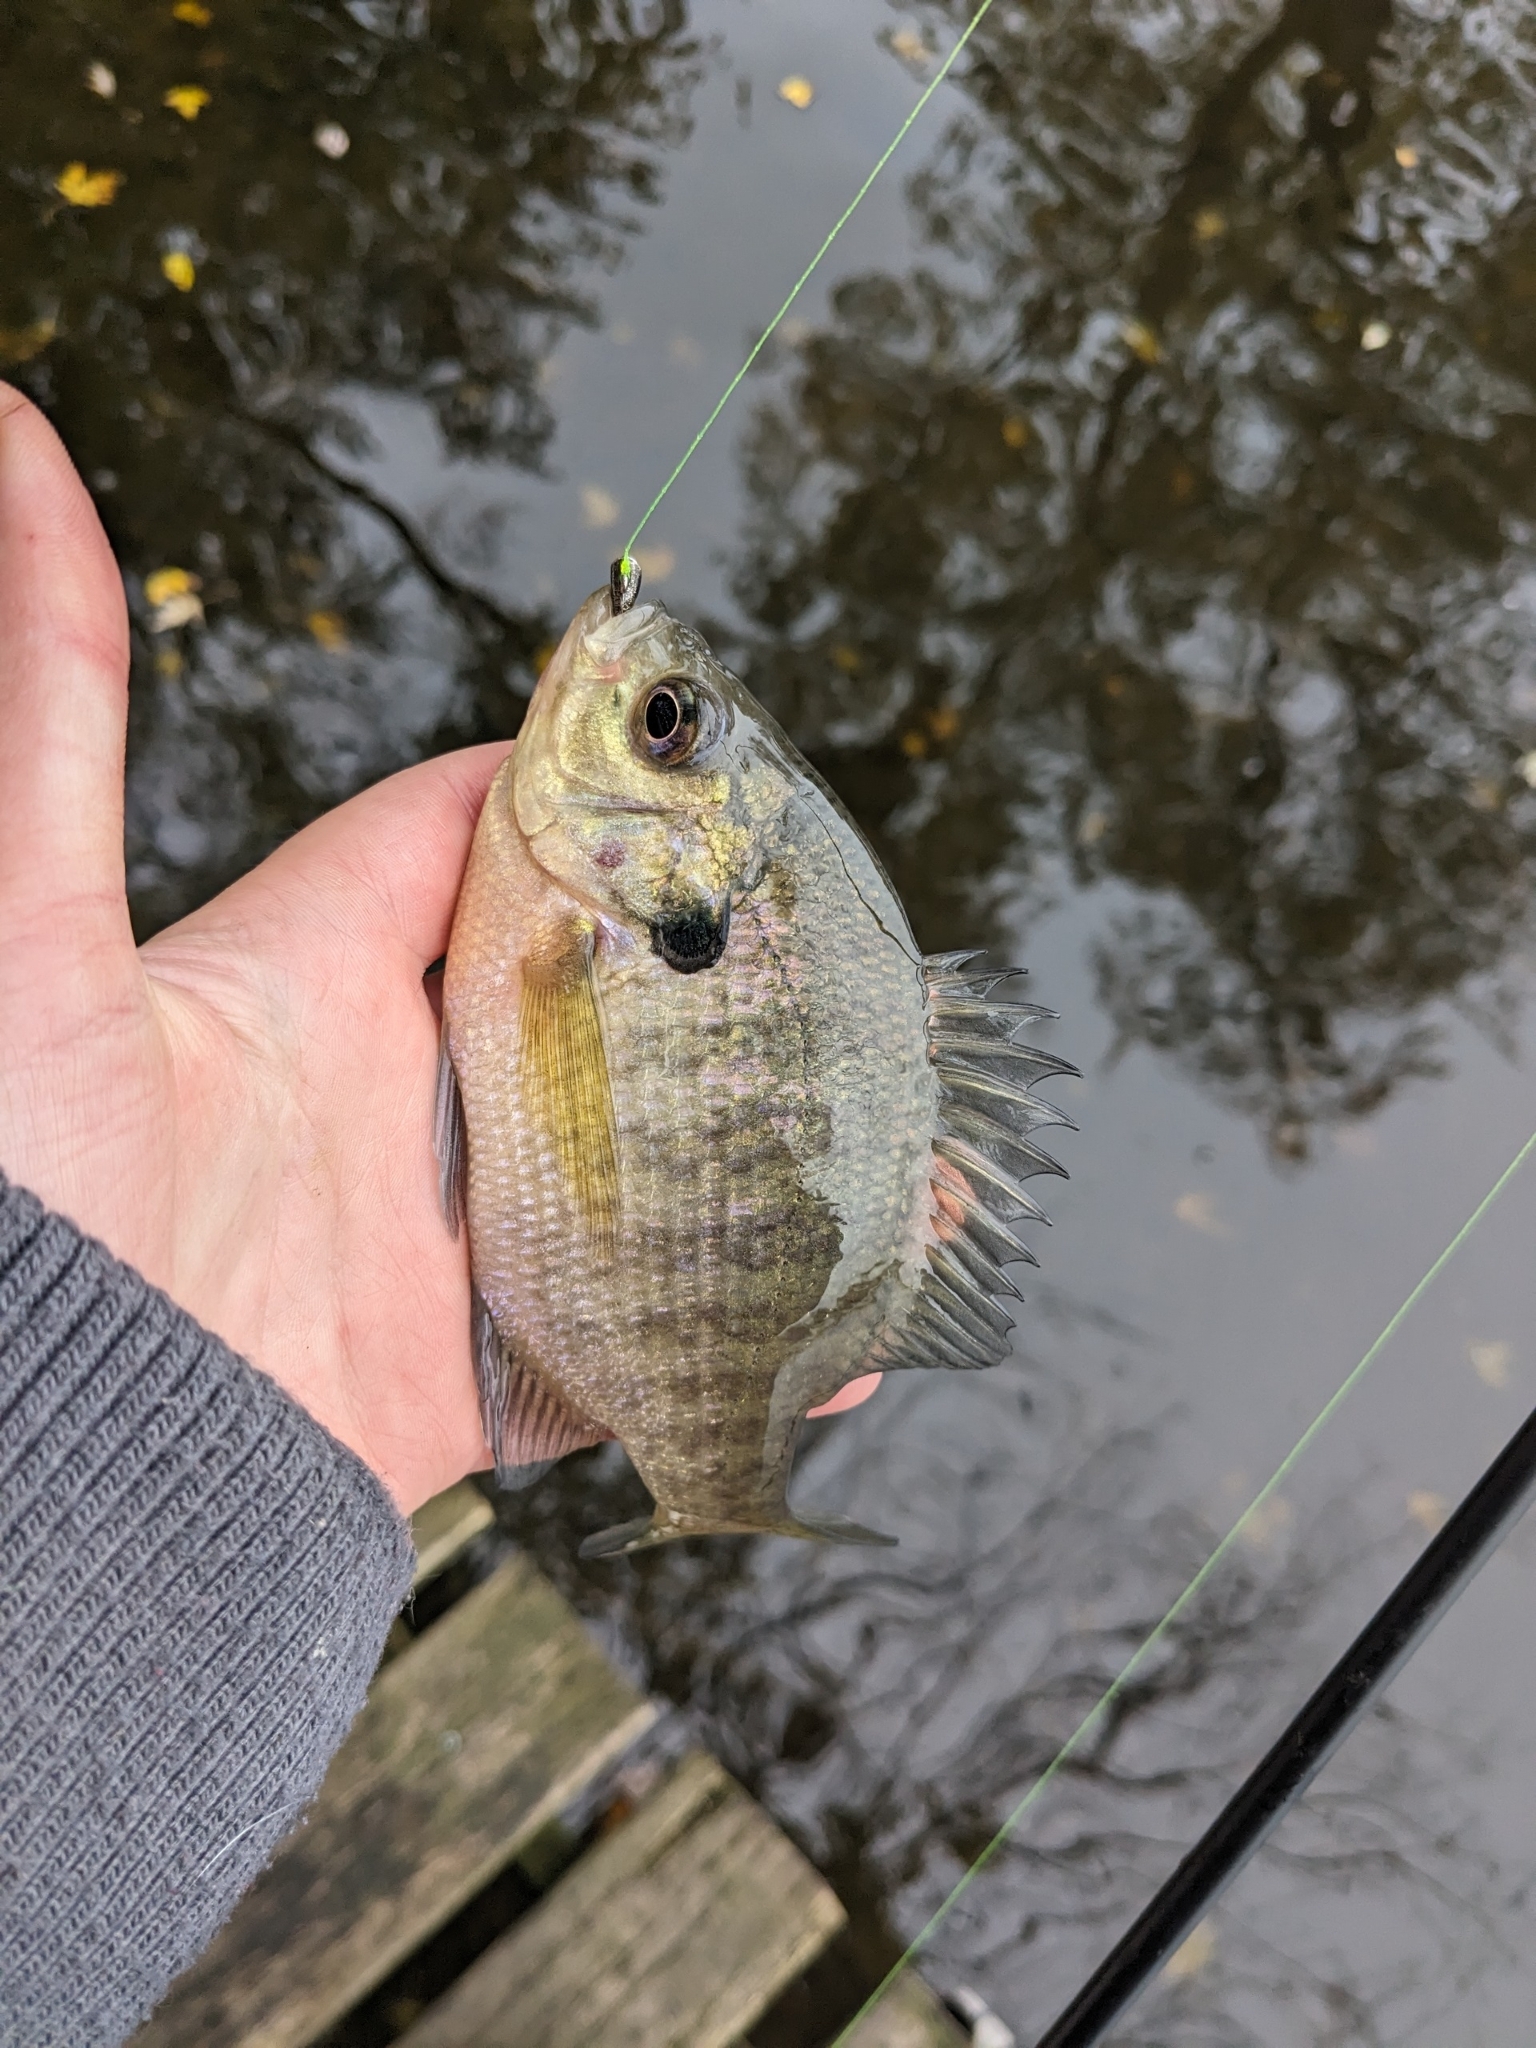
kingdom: Animalia
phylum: Chordata
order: Perciformes
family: Centrarchidae
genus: Lepomis
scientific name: Lepomis macrochirus
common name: Bluegill
